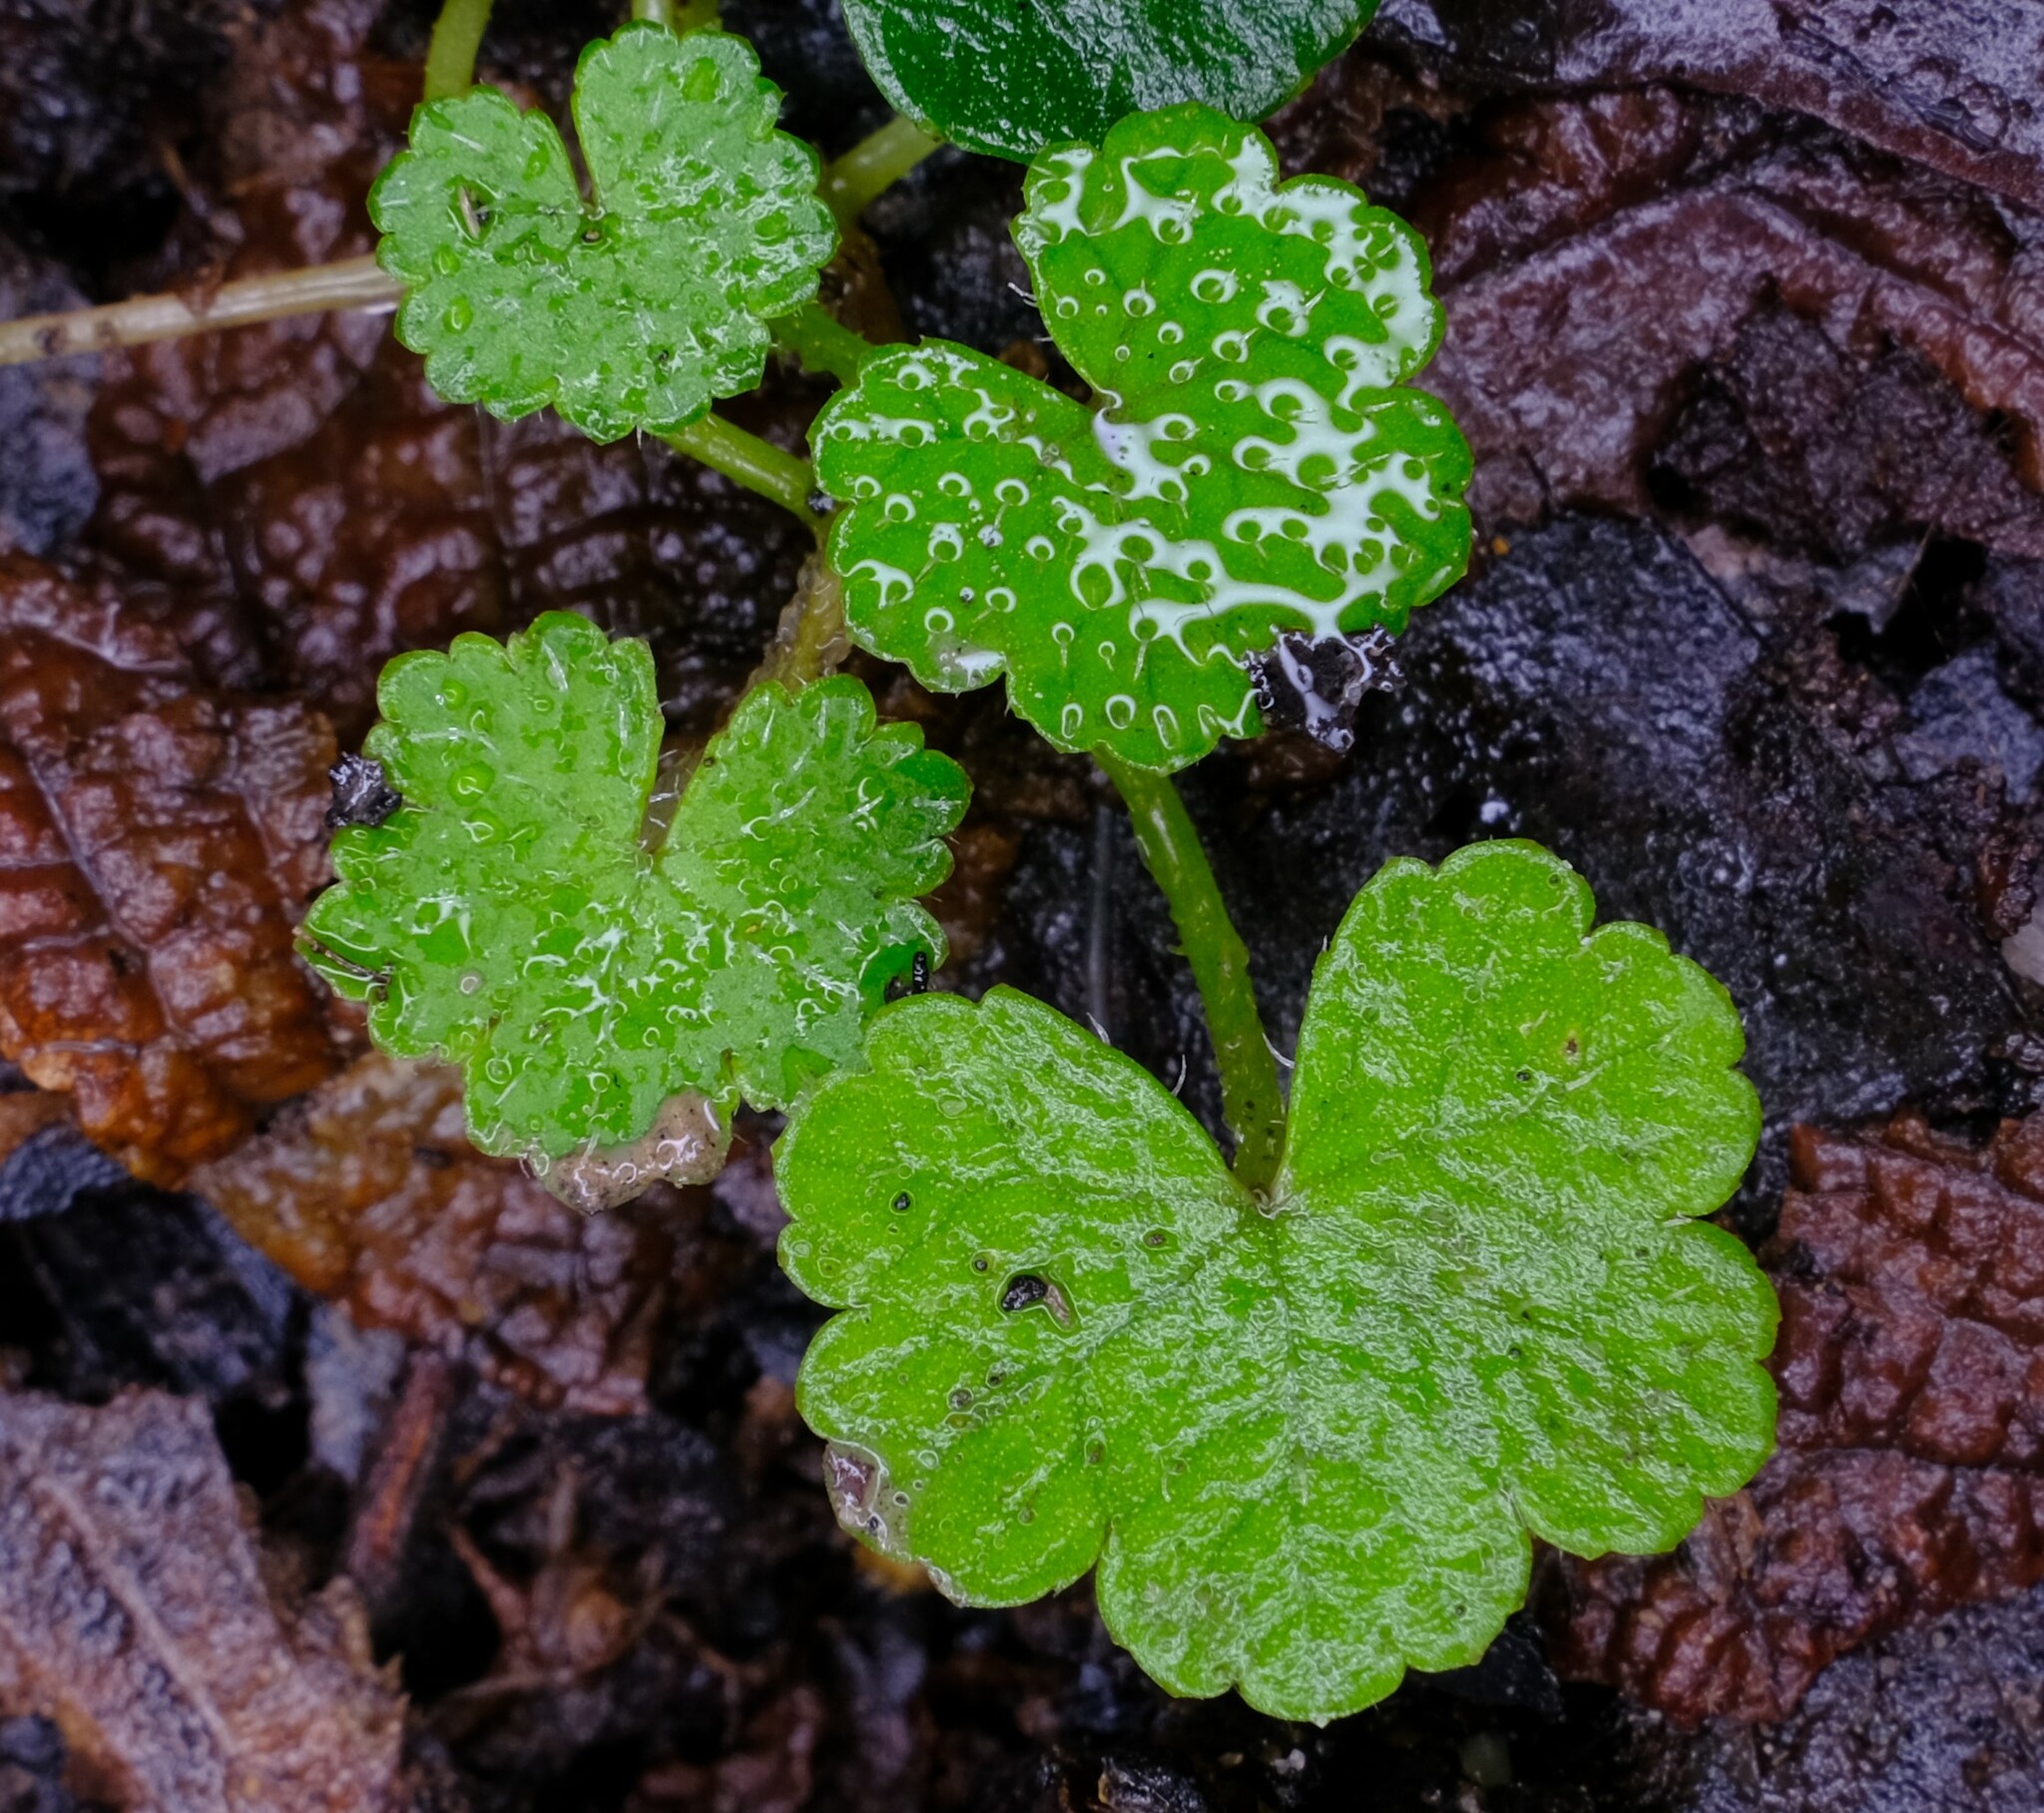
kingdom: Plantae
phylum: Tracheophyta
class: Magnoliopsida
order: Apiales
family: Araliaceae
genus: Hydrocotyle
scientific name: Hydrocotyle hirta
